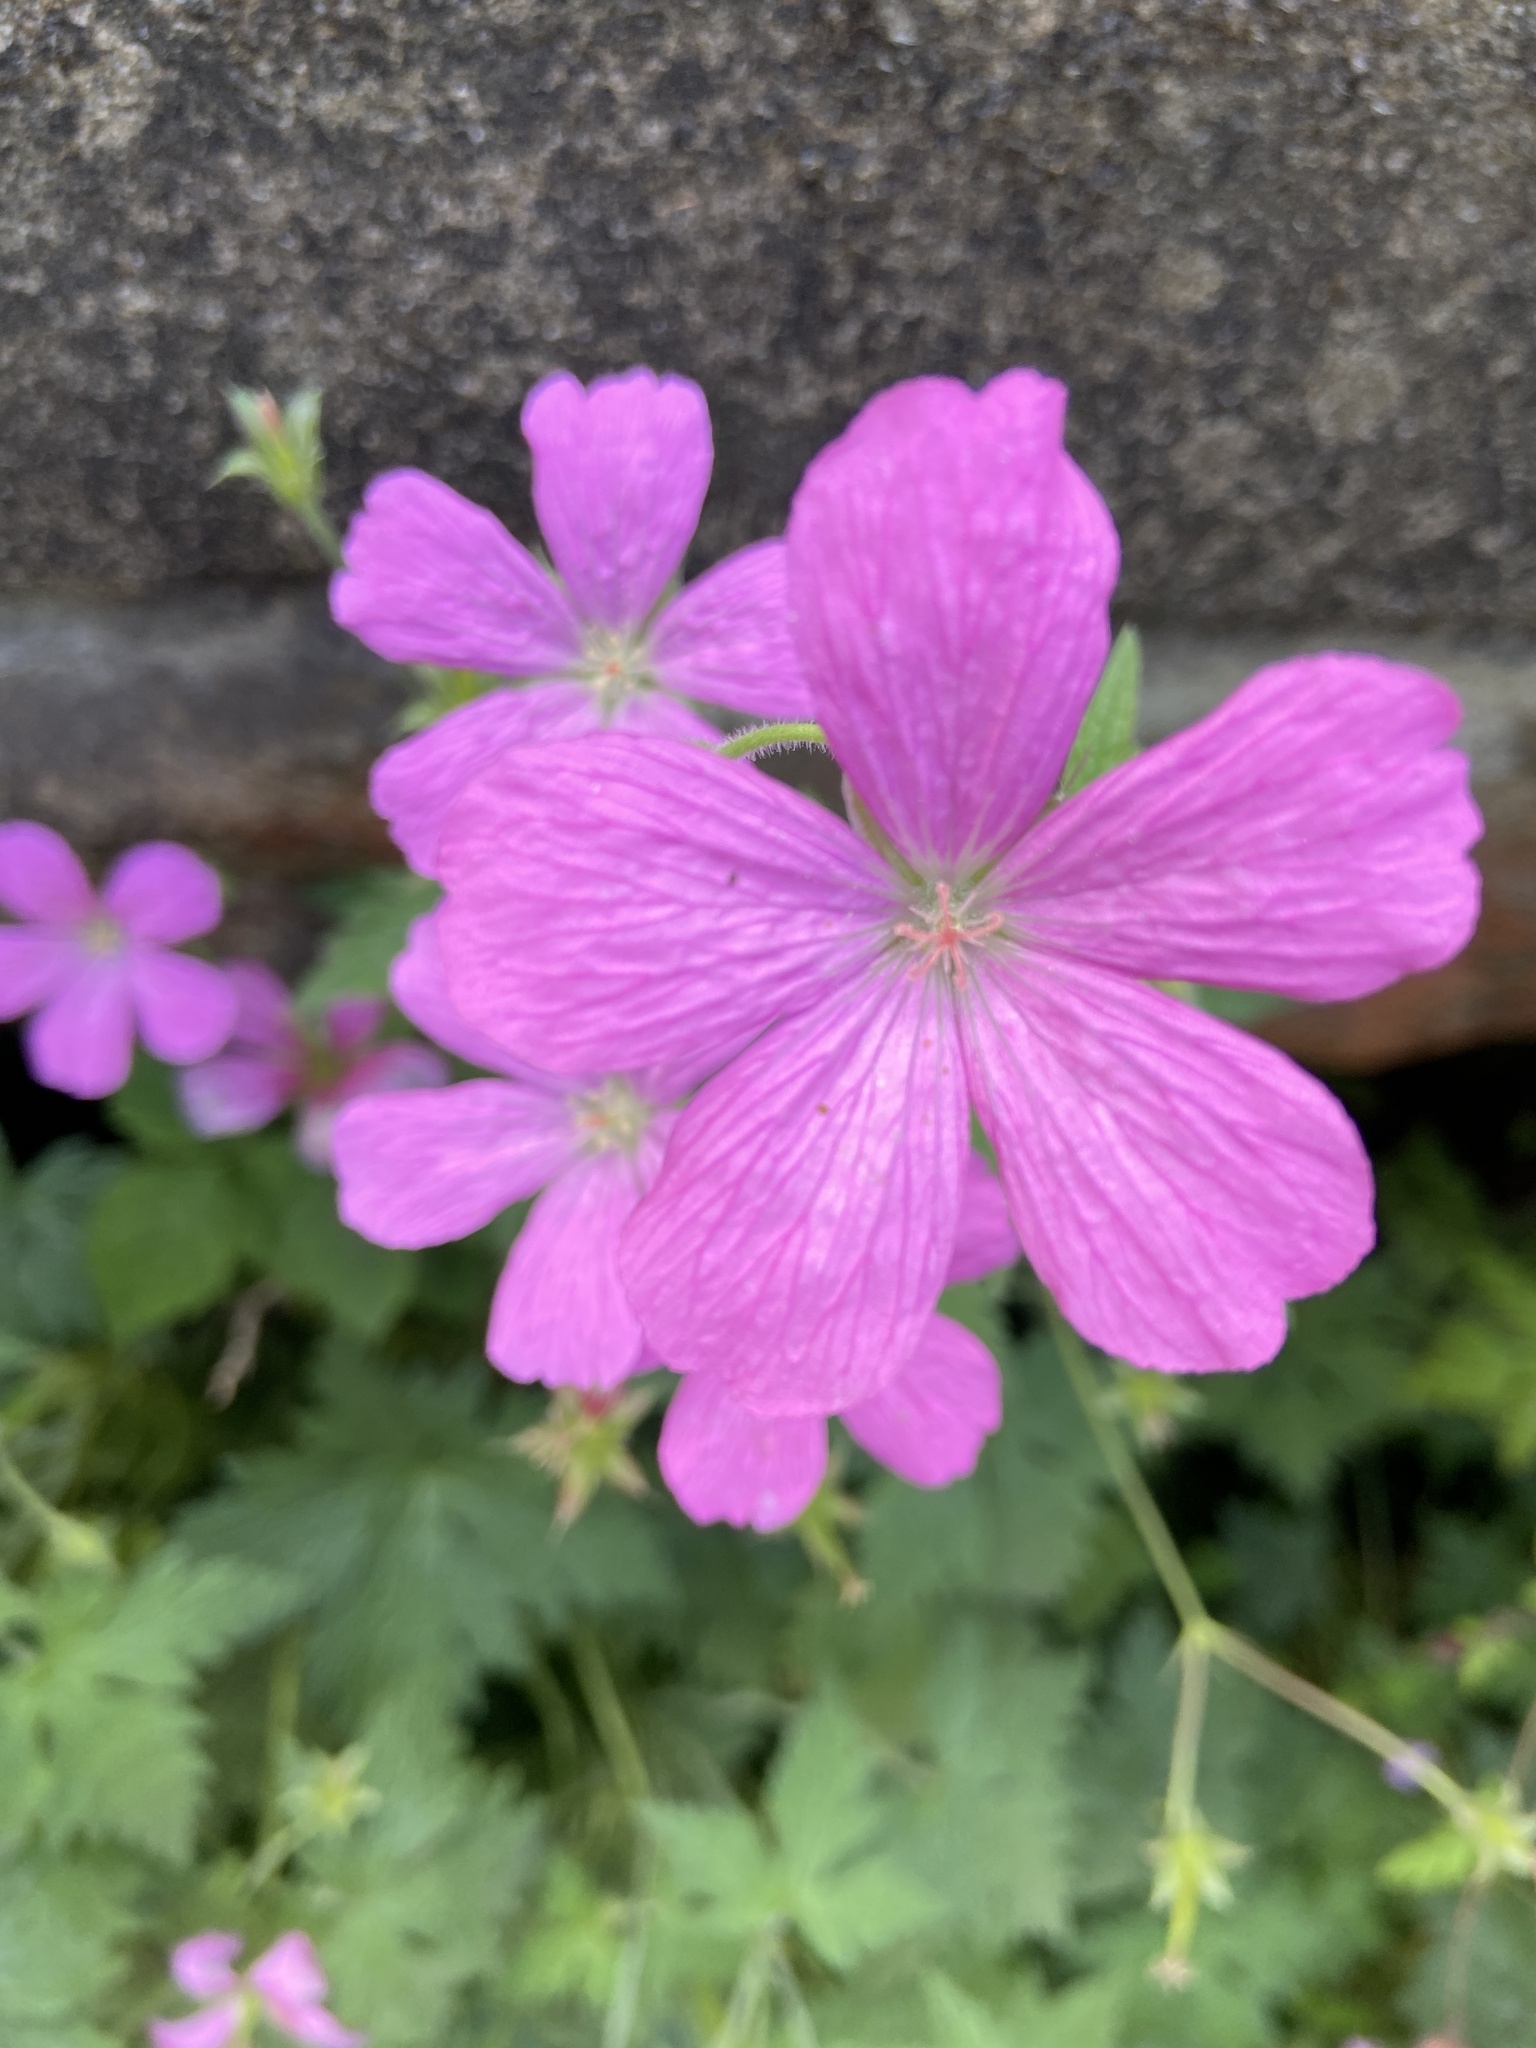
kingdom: Plantae
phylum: Tracheophyta
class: Magnoliopsida
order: Geraniales
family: Geraniaceae
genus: Geranium
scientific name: Geranium oxonianum
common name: Druce's crane's-bill
